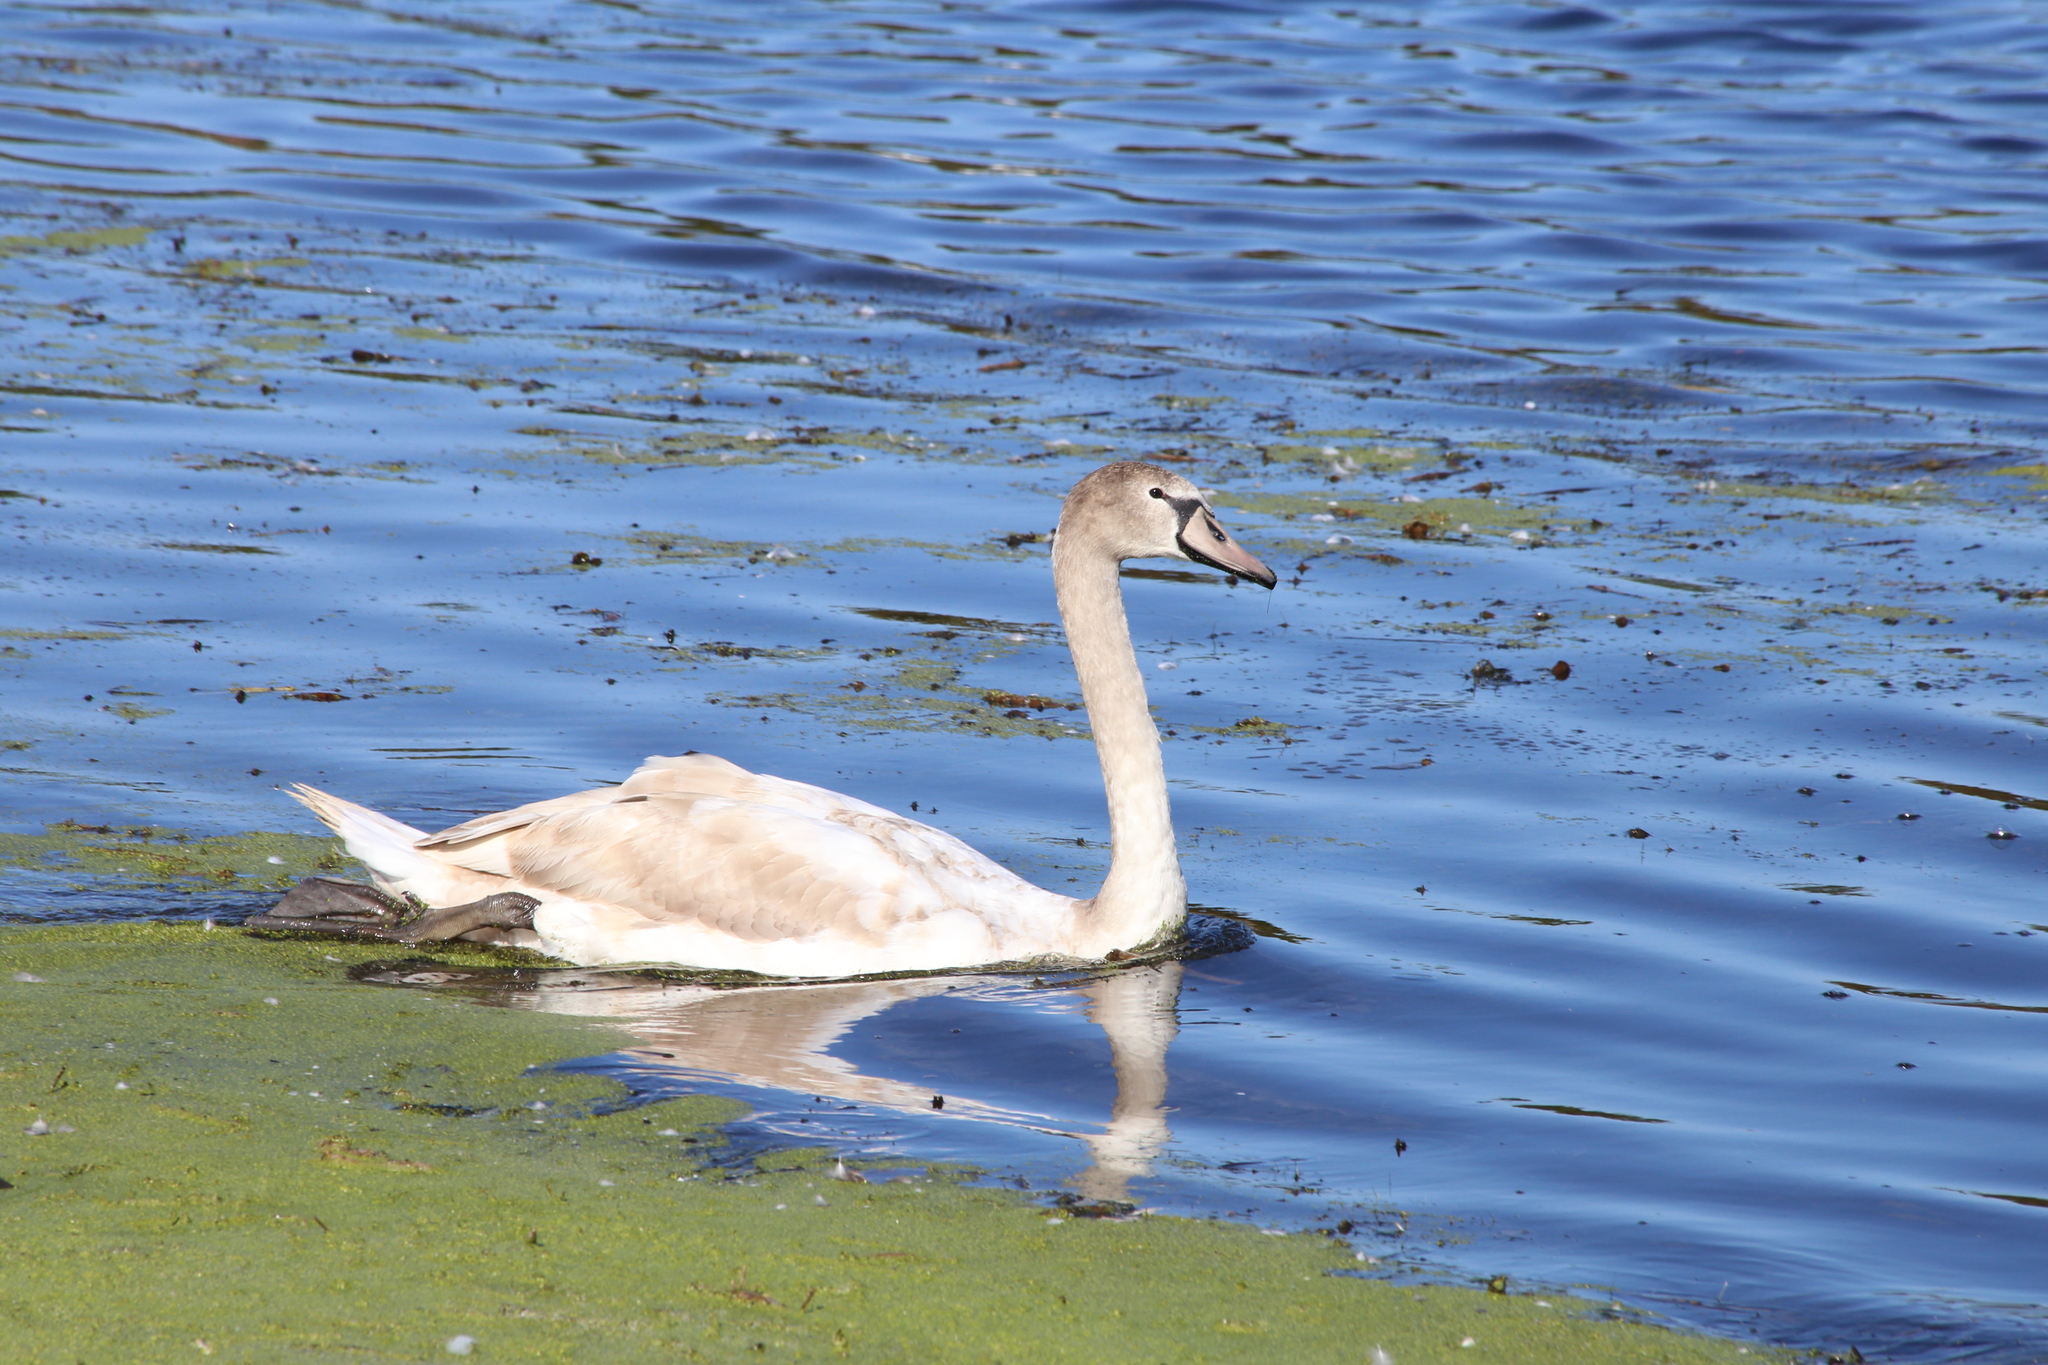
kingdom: Animalia
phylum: Chordata
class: Aves
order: Anseriformes
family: Anatidae
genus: Cygnus
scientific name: Cygnus olor
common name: Mute swan
